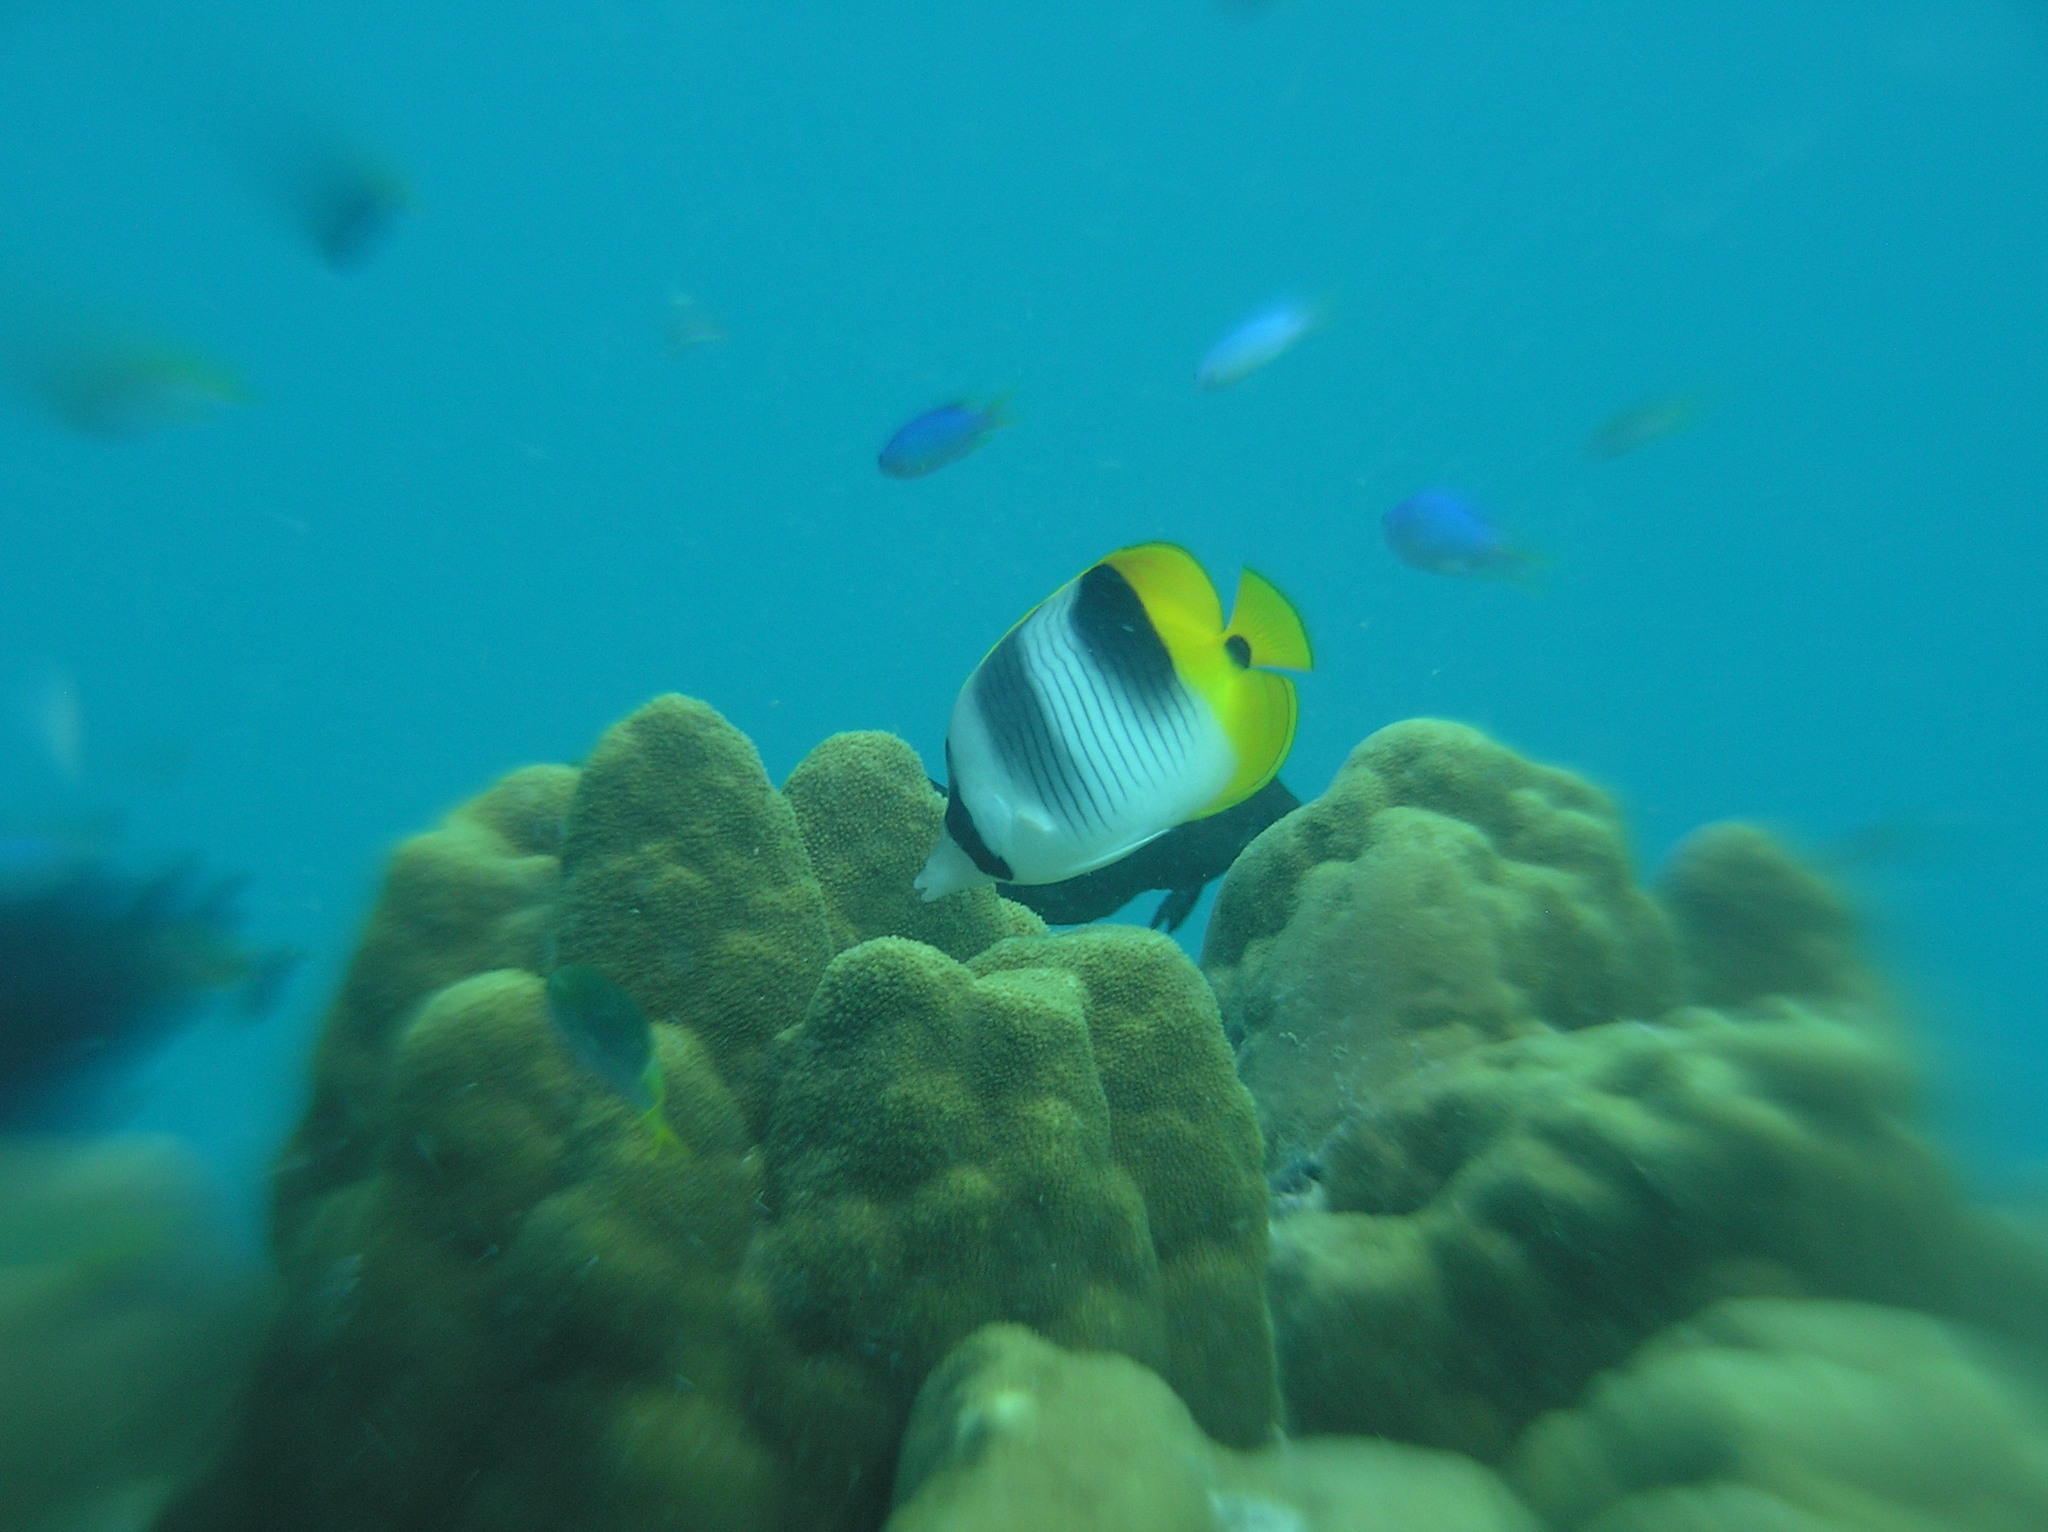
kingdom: Animalia
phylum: Chordata
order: Perciformes
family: Chaetodontidae
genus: Chaetodon
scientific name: Chaetodon ulietensis
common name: Pacific double-saddle butterflyfish
